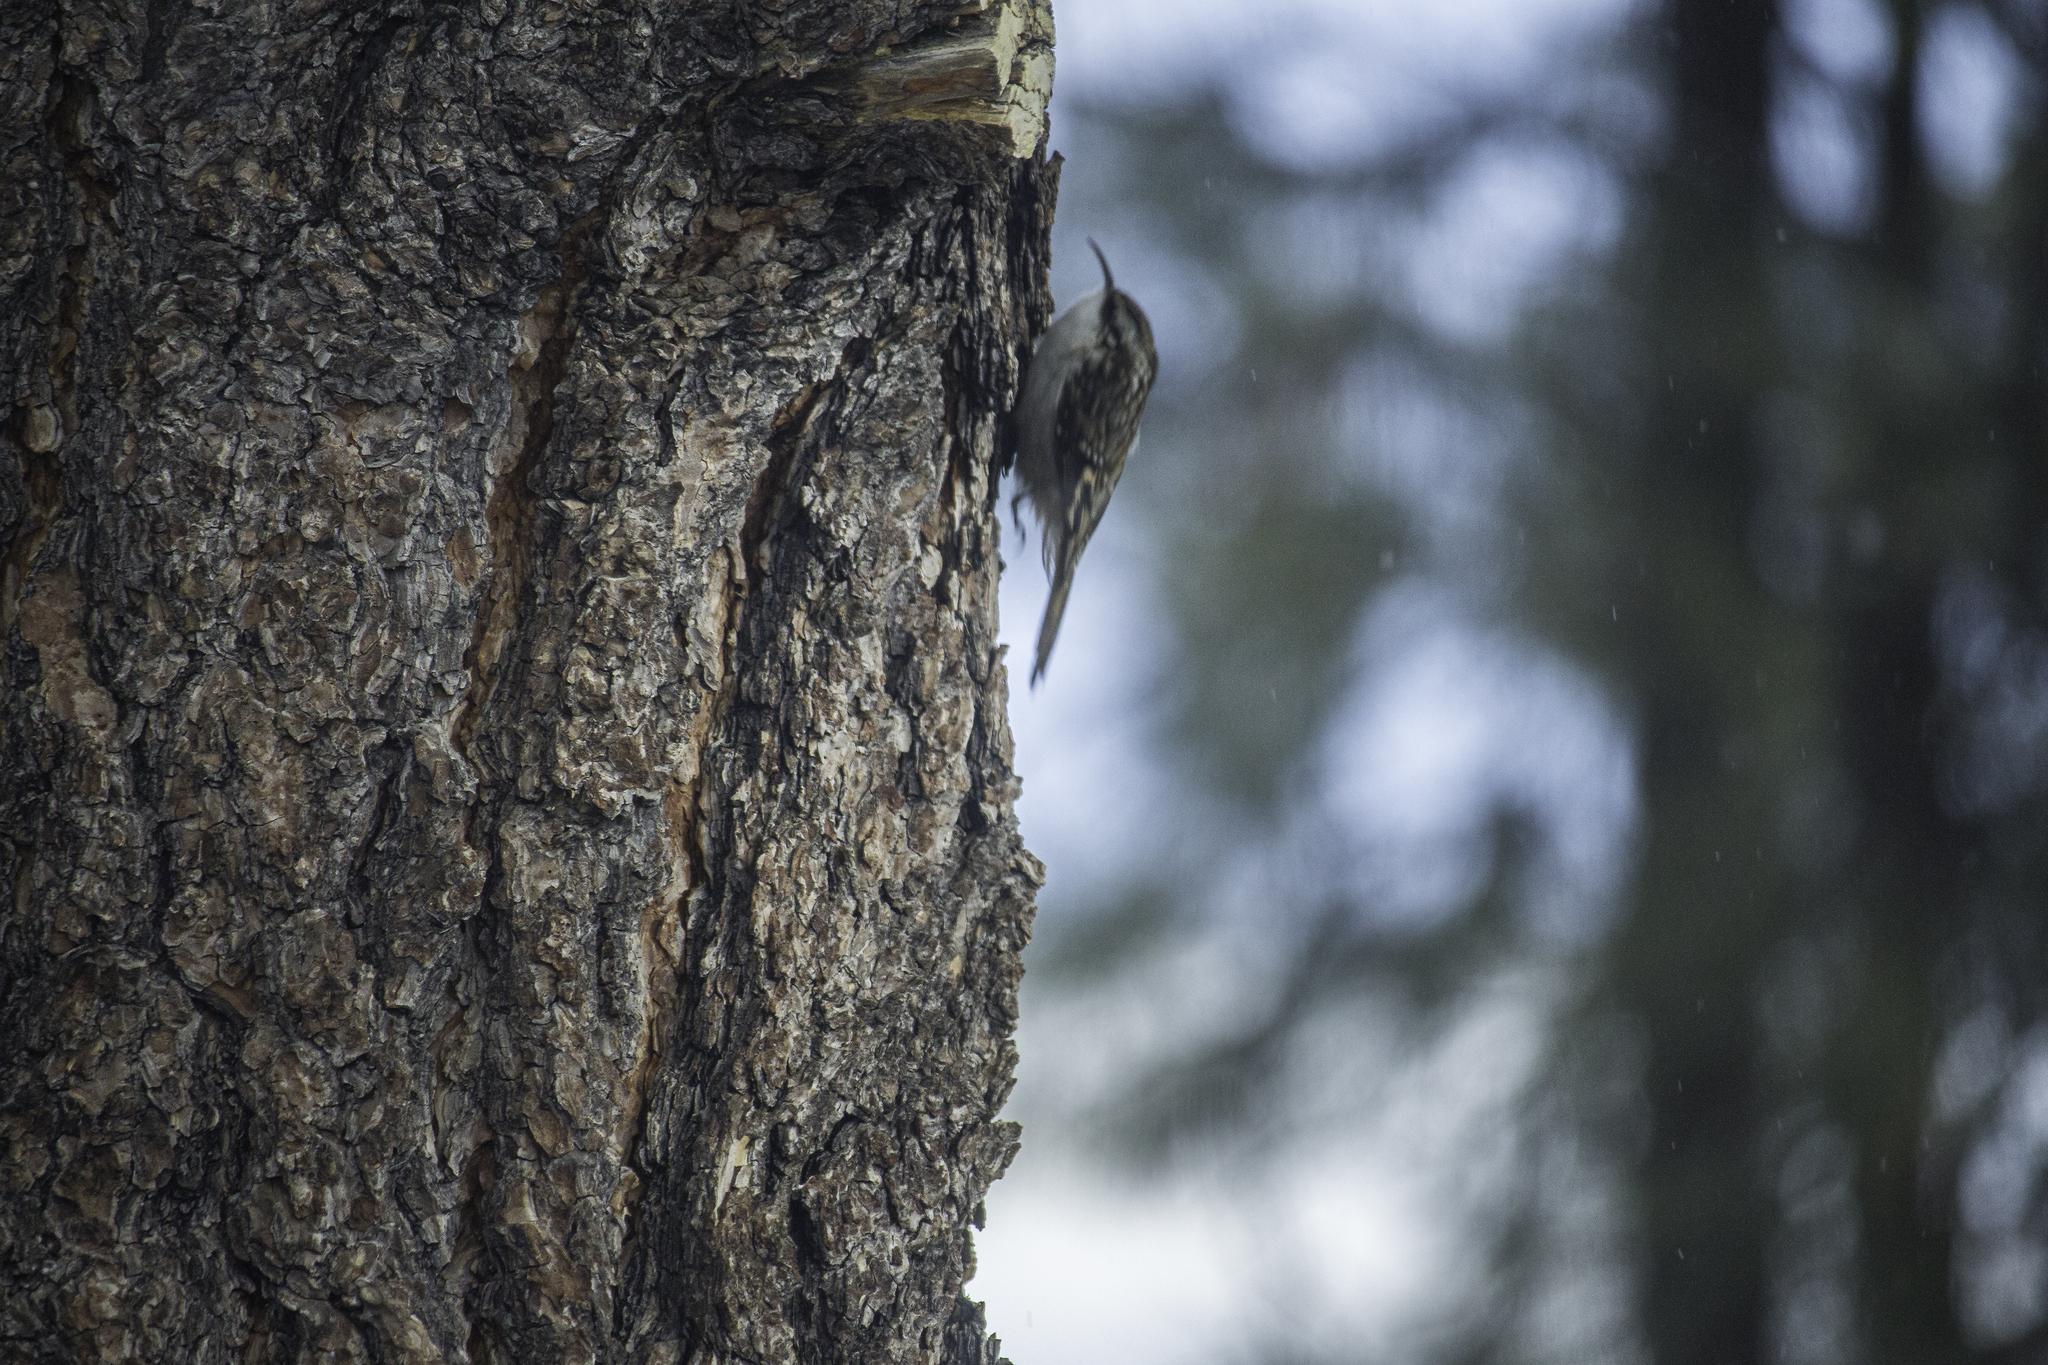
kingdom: Animalia
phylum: Chordata
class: Aves
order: Passeriformes
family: Certhiidae
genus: Certhia
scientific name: Certhia americana
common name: Brown creeper
